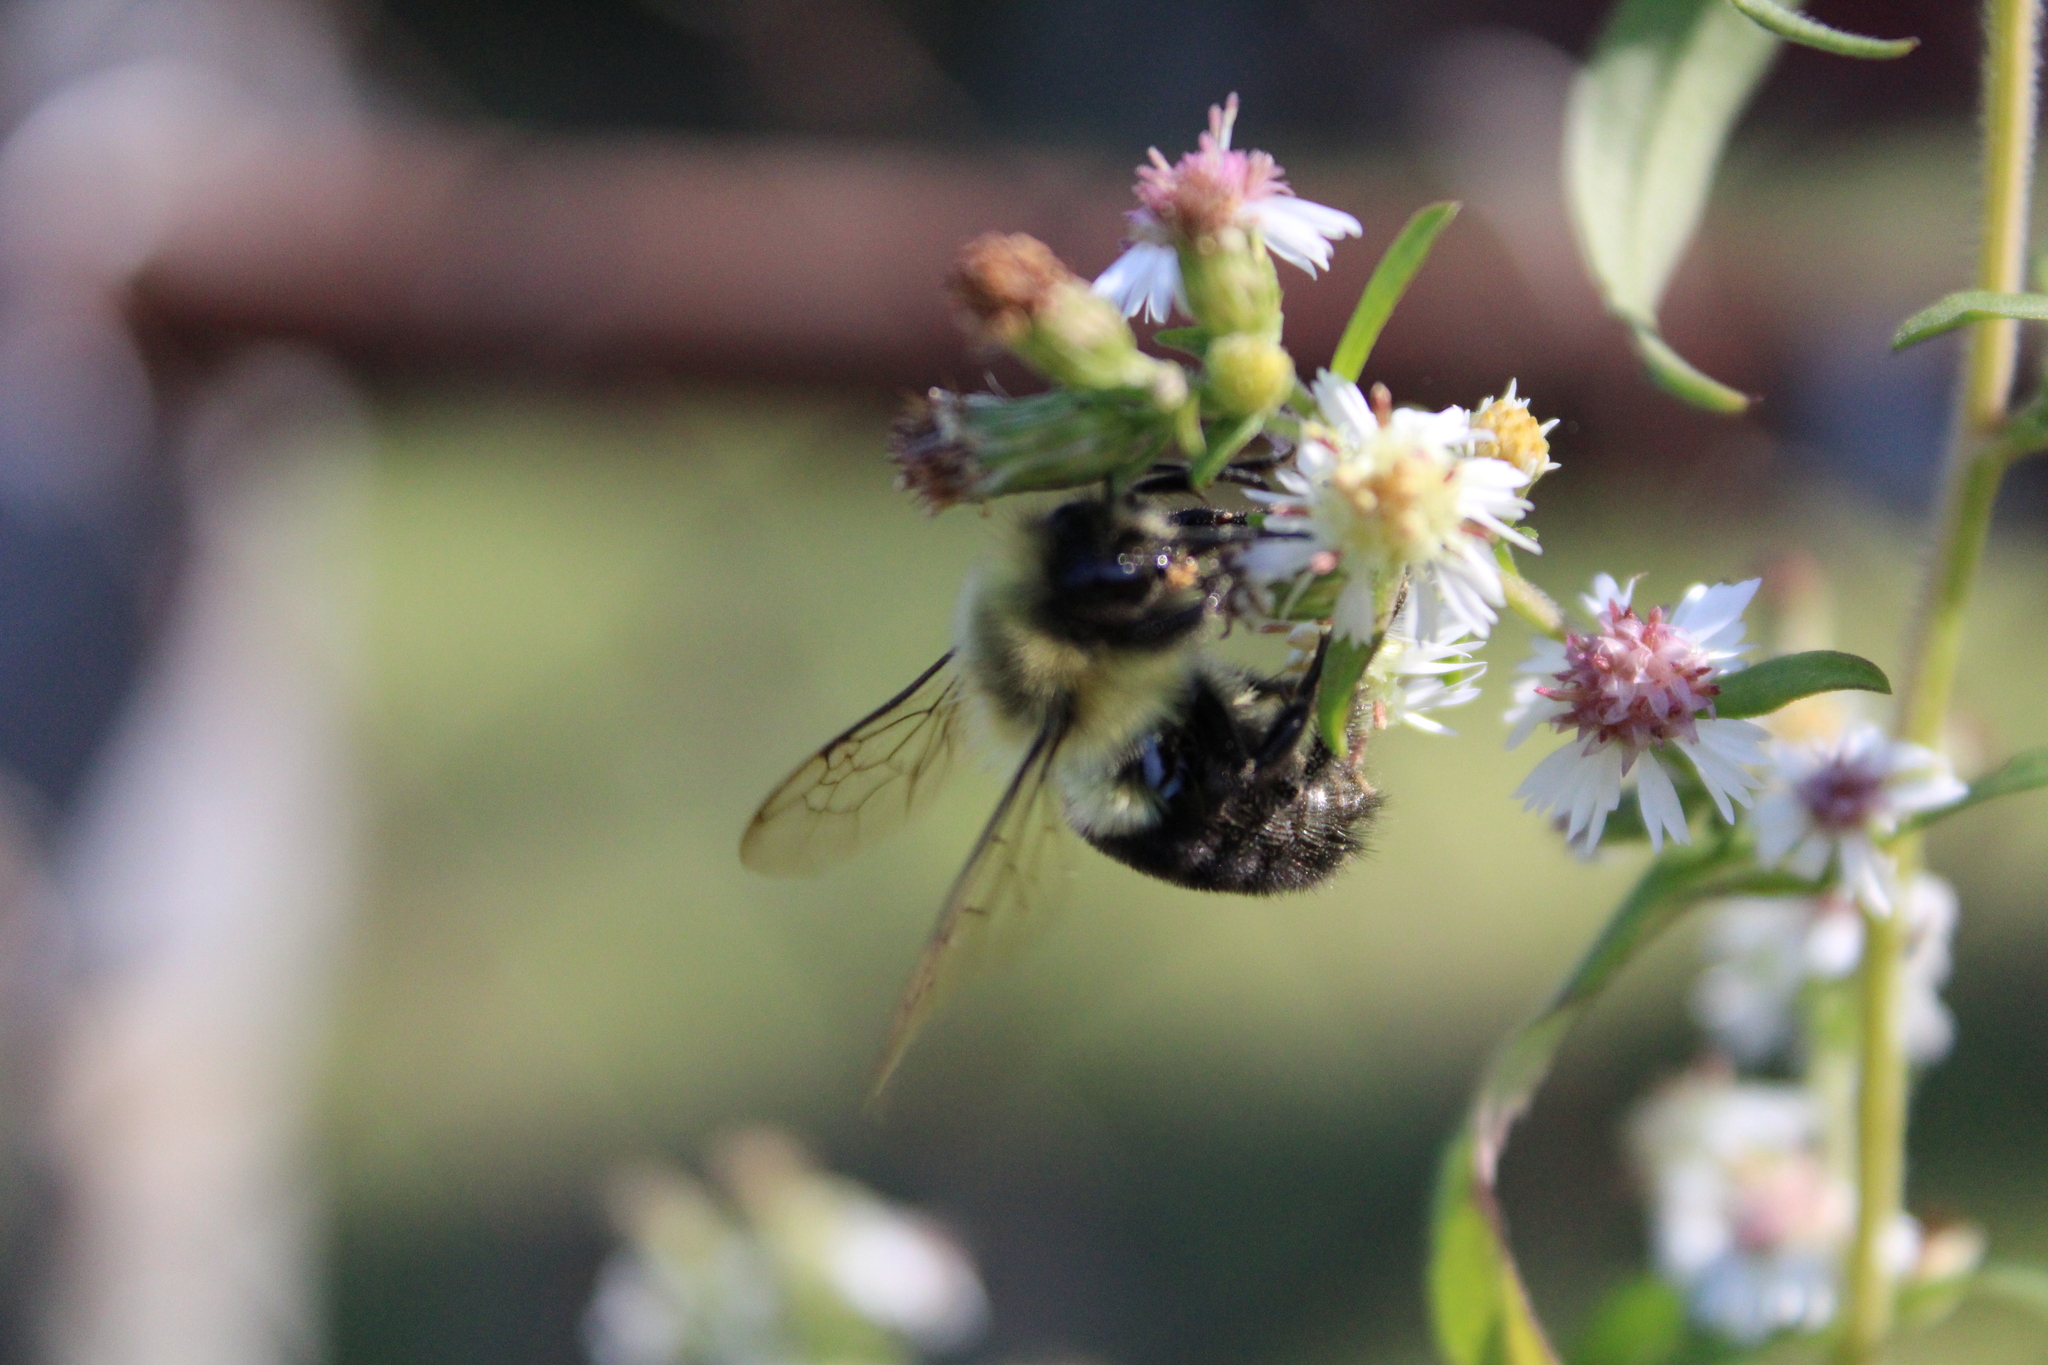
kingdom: Animalia
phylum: Arthropoda
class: Insecta
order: Hymenoptera
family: Apidae
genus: Bombus
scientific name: Bombus impatiens
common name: Common eastern bumble bee
